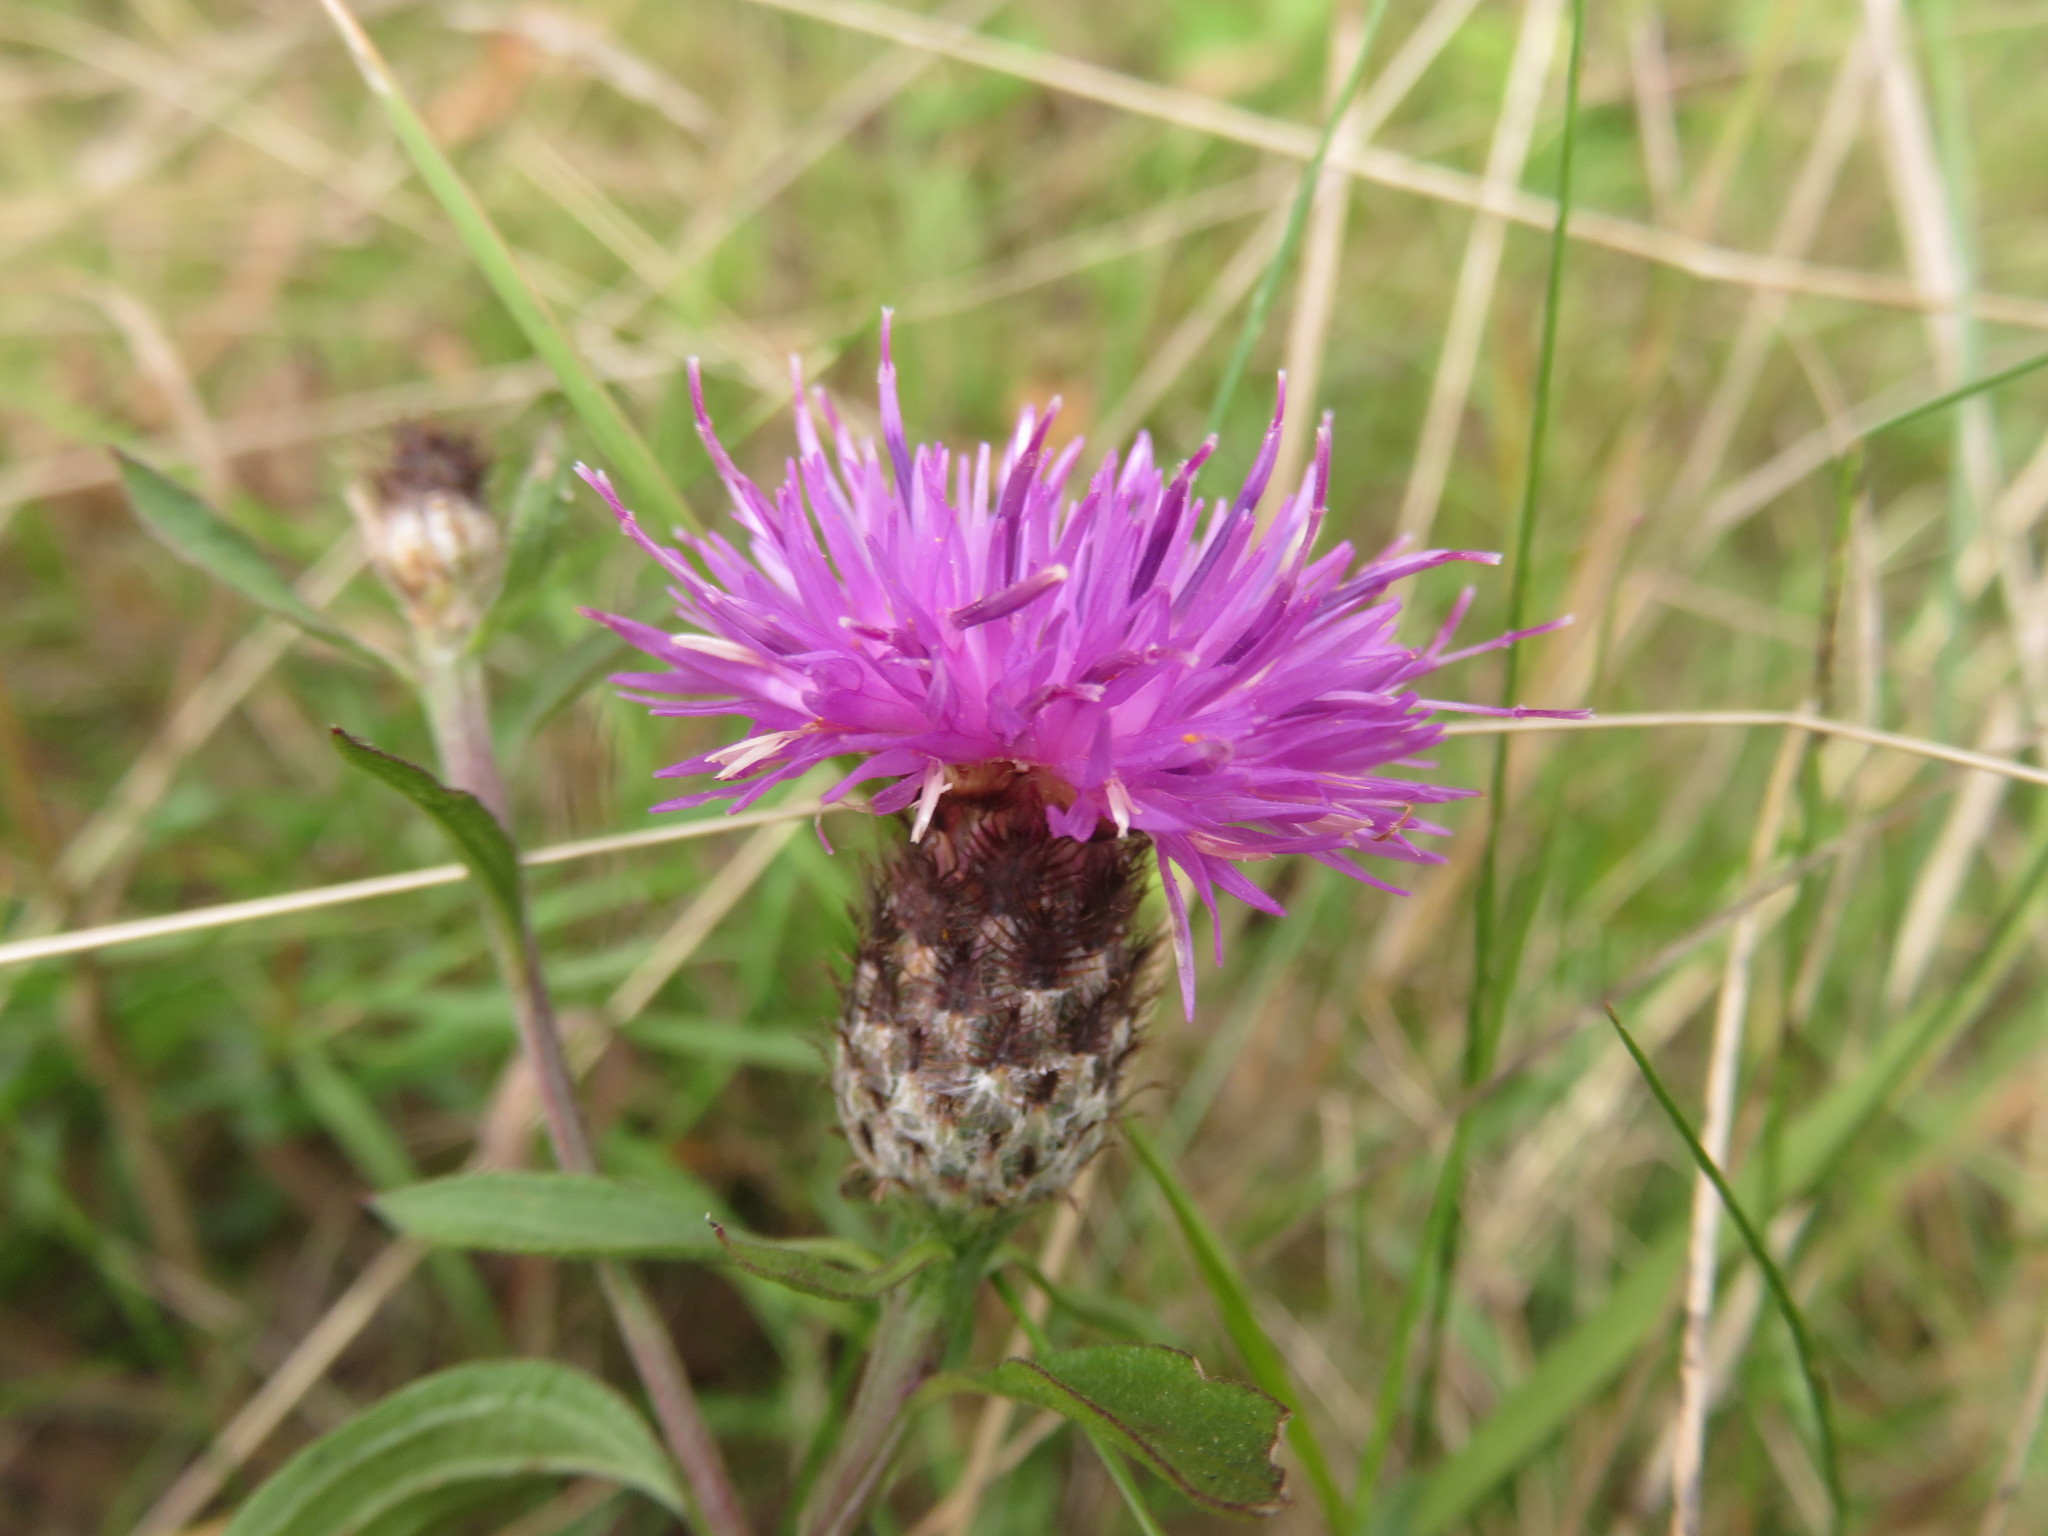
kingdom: Plantae
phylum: Tracheophyta
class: Magnoliopsida
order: Asterales
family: Asteraceae
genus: Centaurea
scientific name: Centaurea nigra
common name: Lesser knapweed
